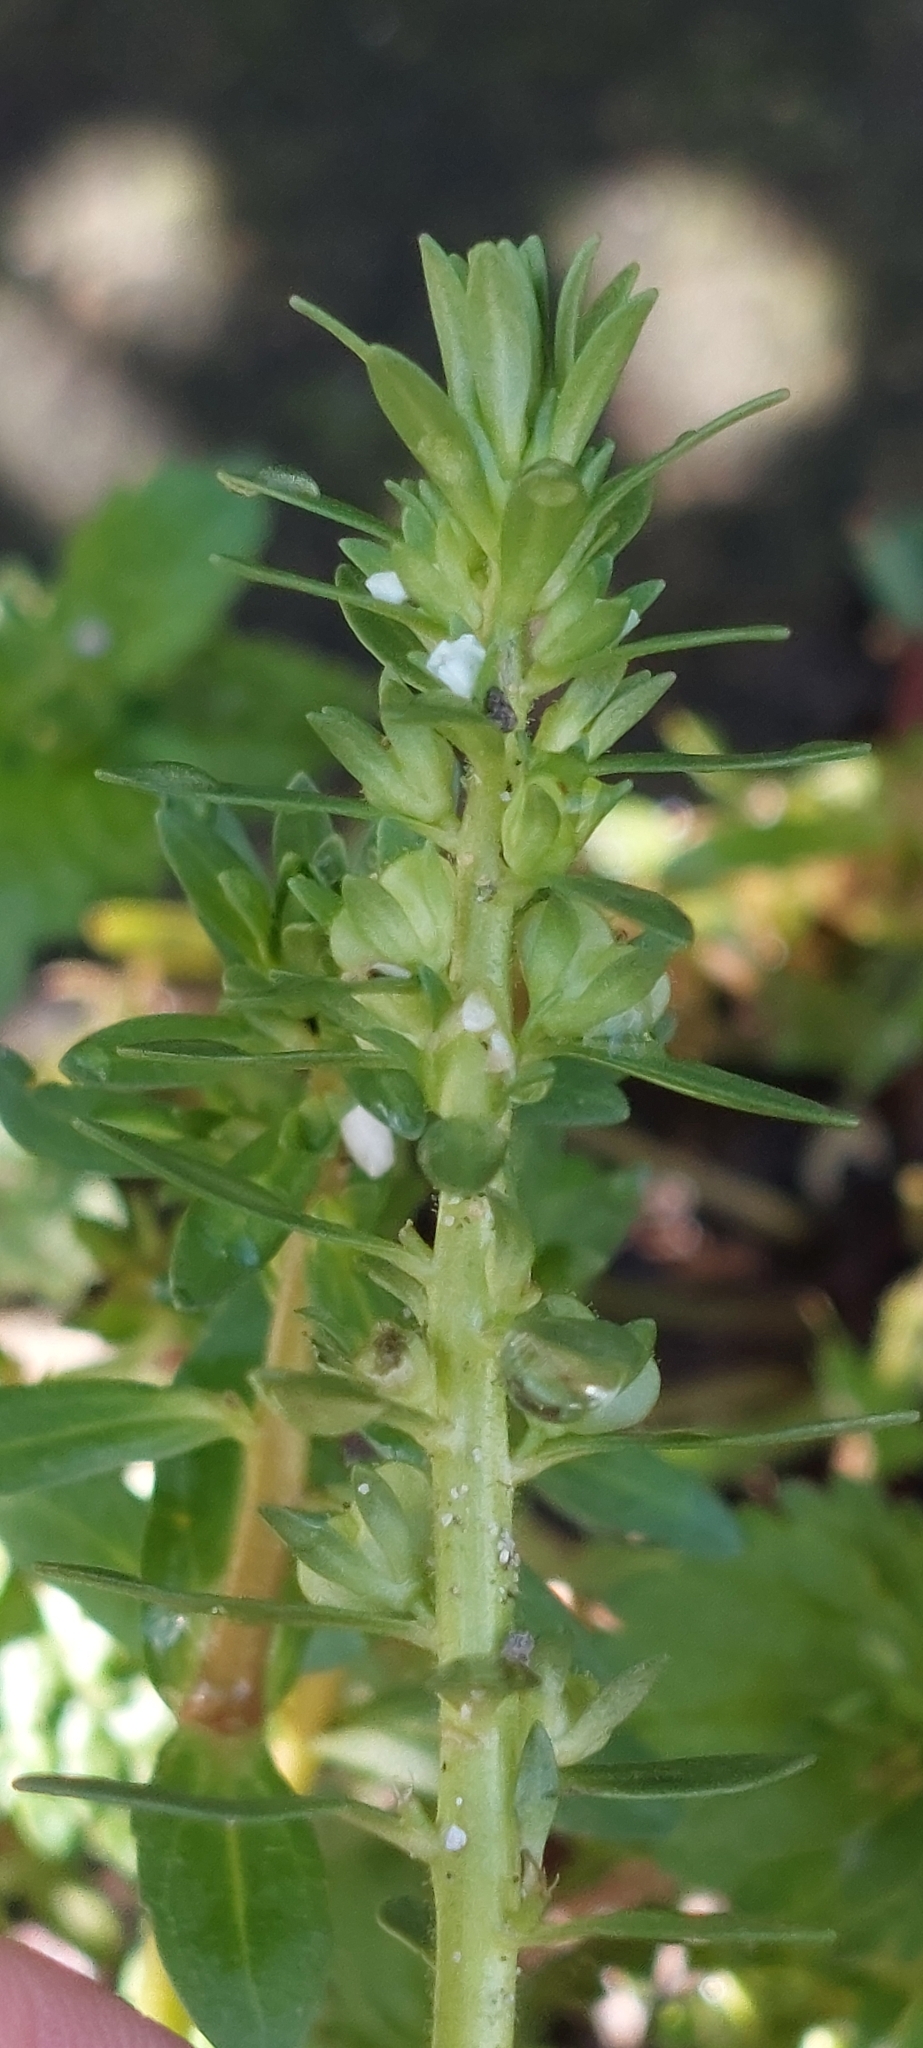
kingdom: Plantae
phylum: Tracheophyta
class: Magnoliopsida
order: Lamiales
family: Plantaginaceae
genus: Veronica
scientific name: Veronica peregrina
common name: Neckweed
